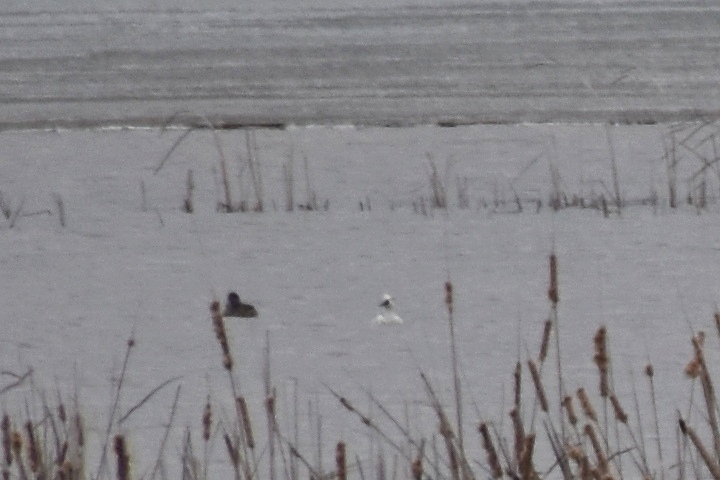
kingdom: Animalia
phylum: Chordata
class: Aves
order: Anseriformes
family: Anatidae
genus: Mergellus
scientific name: Mergellus albellus
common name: Smew
